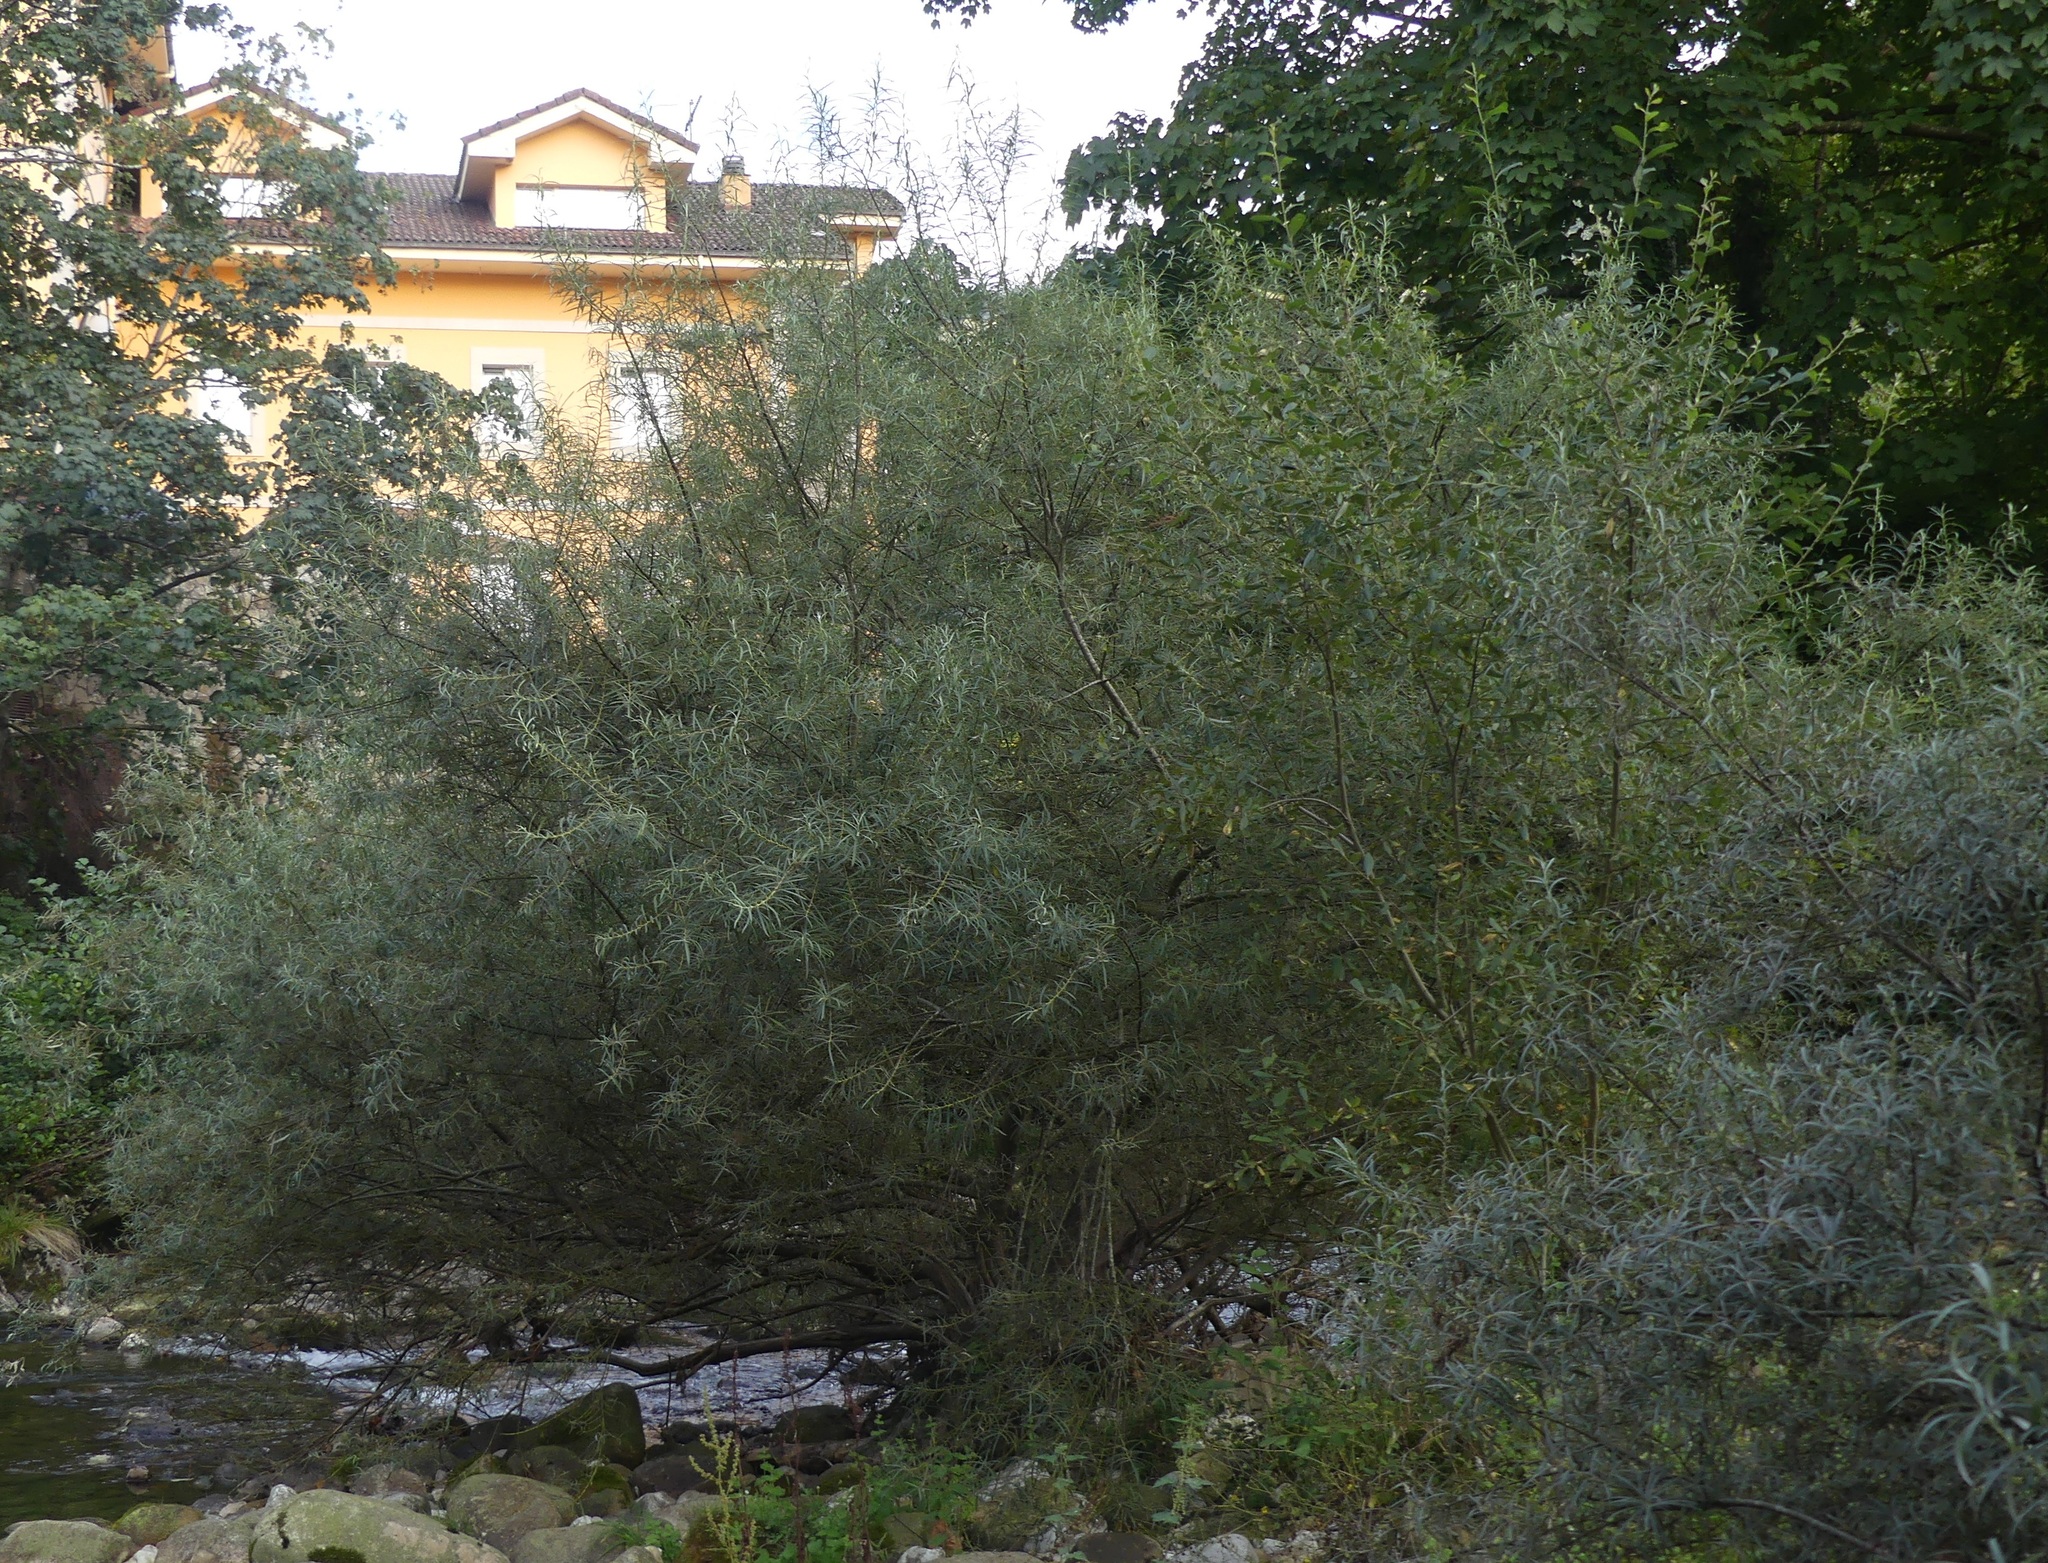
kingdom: Plantae
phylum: Tracheophyta
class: Magnoliopsida
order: Malpighiales
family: Salicaceae
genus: Salix
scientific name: Salix eleagnos
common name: Elaeagnus willow
